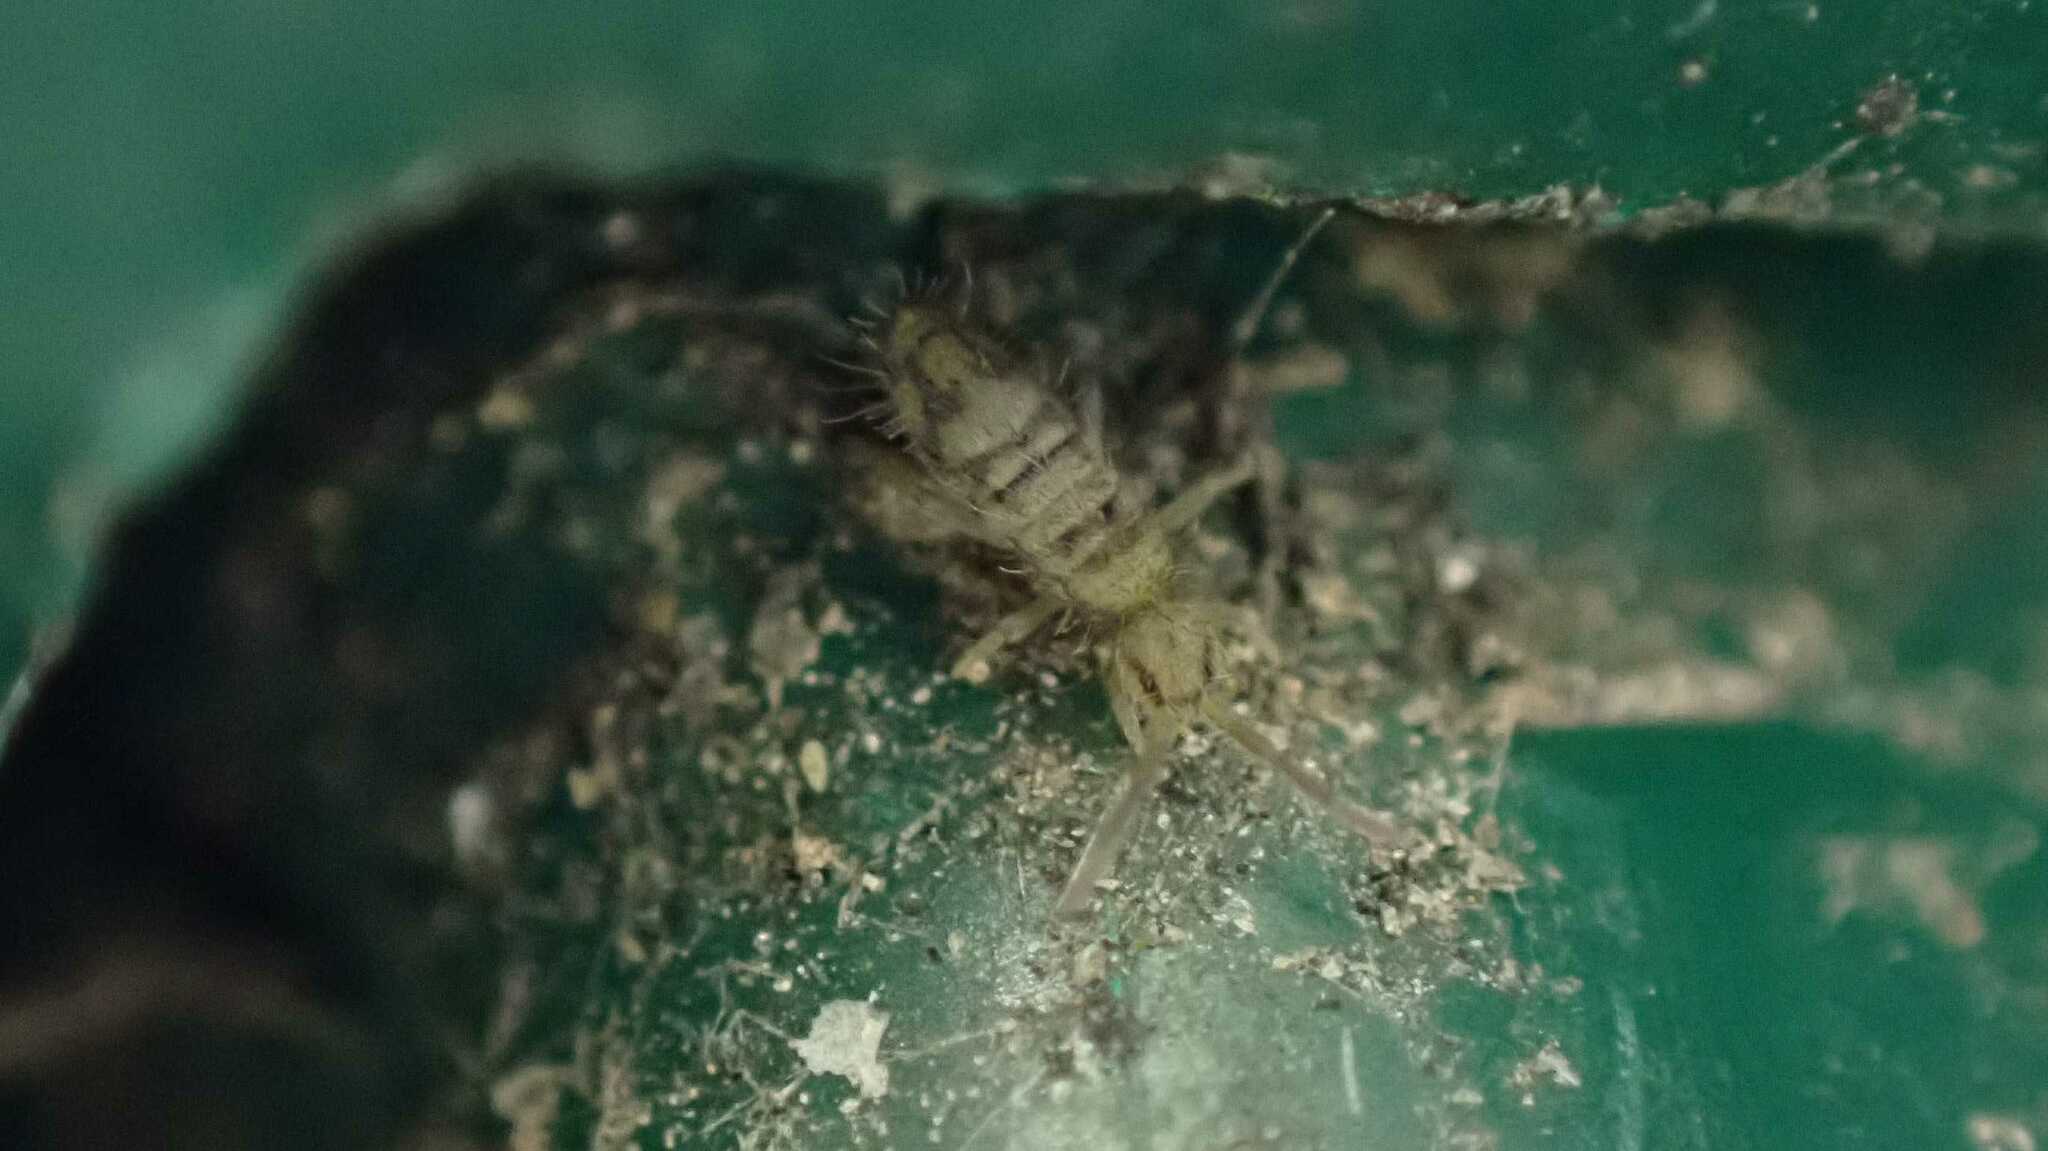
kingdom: Animalia
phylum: Arthropoda
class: Collembola
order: Entomobryomorpha
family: Entomobryidae
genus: Entomobrya
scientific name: Entomobrya nivalis
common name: Cosmopolitan springtail
